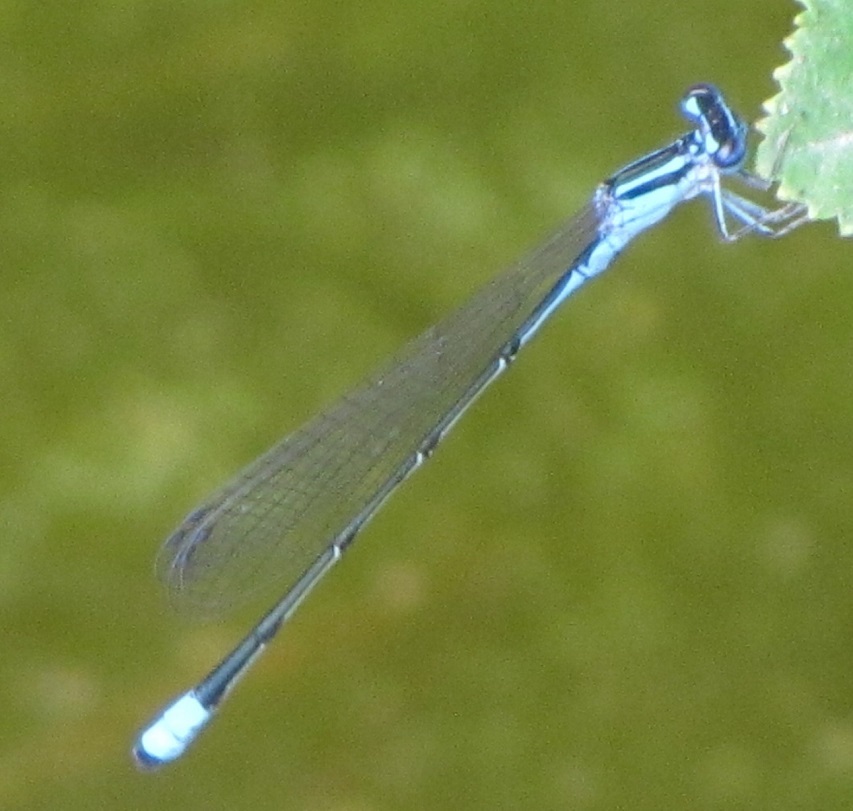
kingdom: Animalia
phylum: Arthropoda
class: Insecta
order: Odonata
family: Coenagrionidae
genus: Enallagma
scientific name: Enallagma divagans
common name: Turquoise bluet
